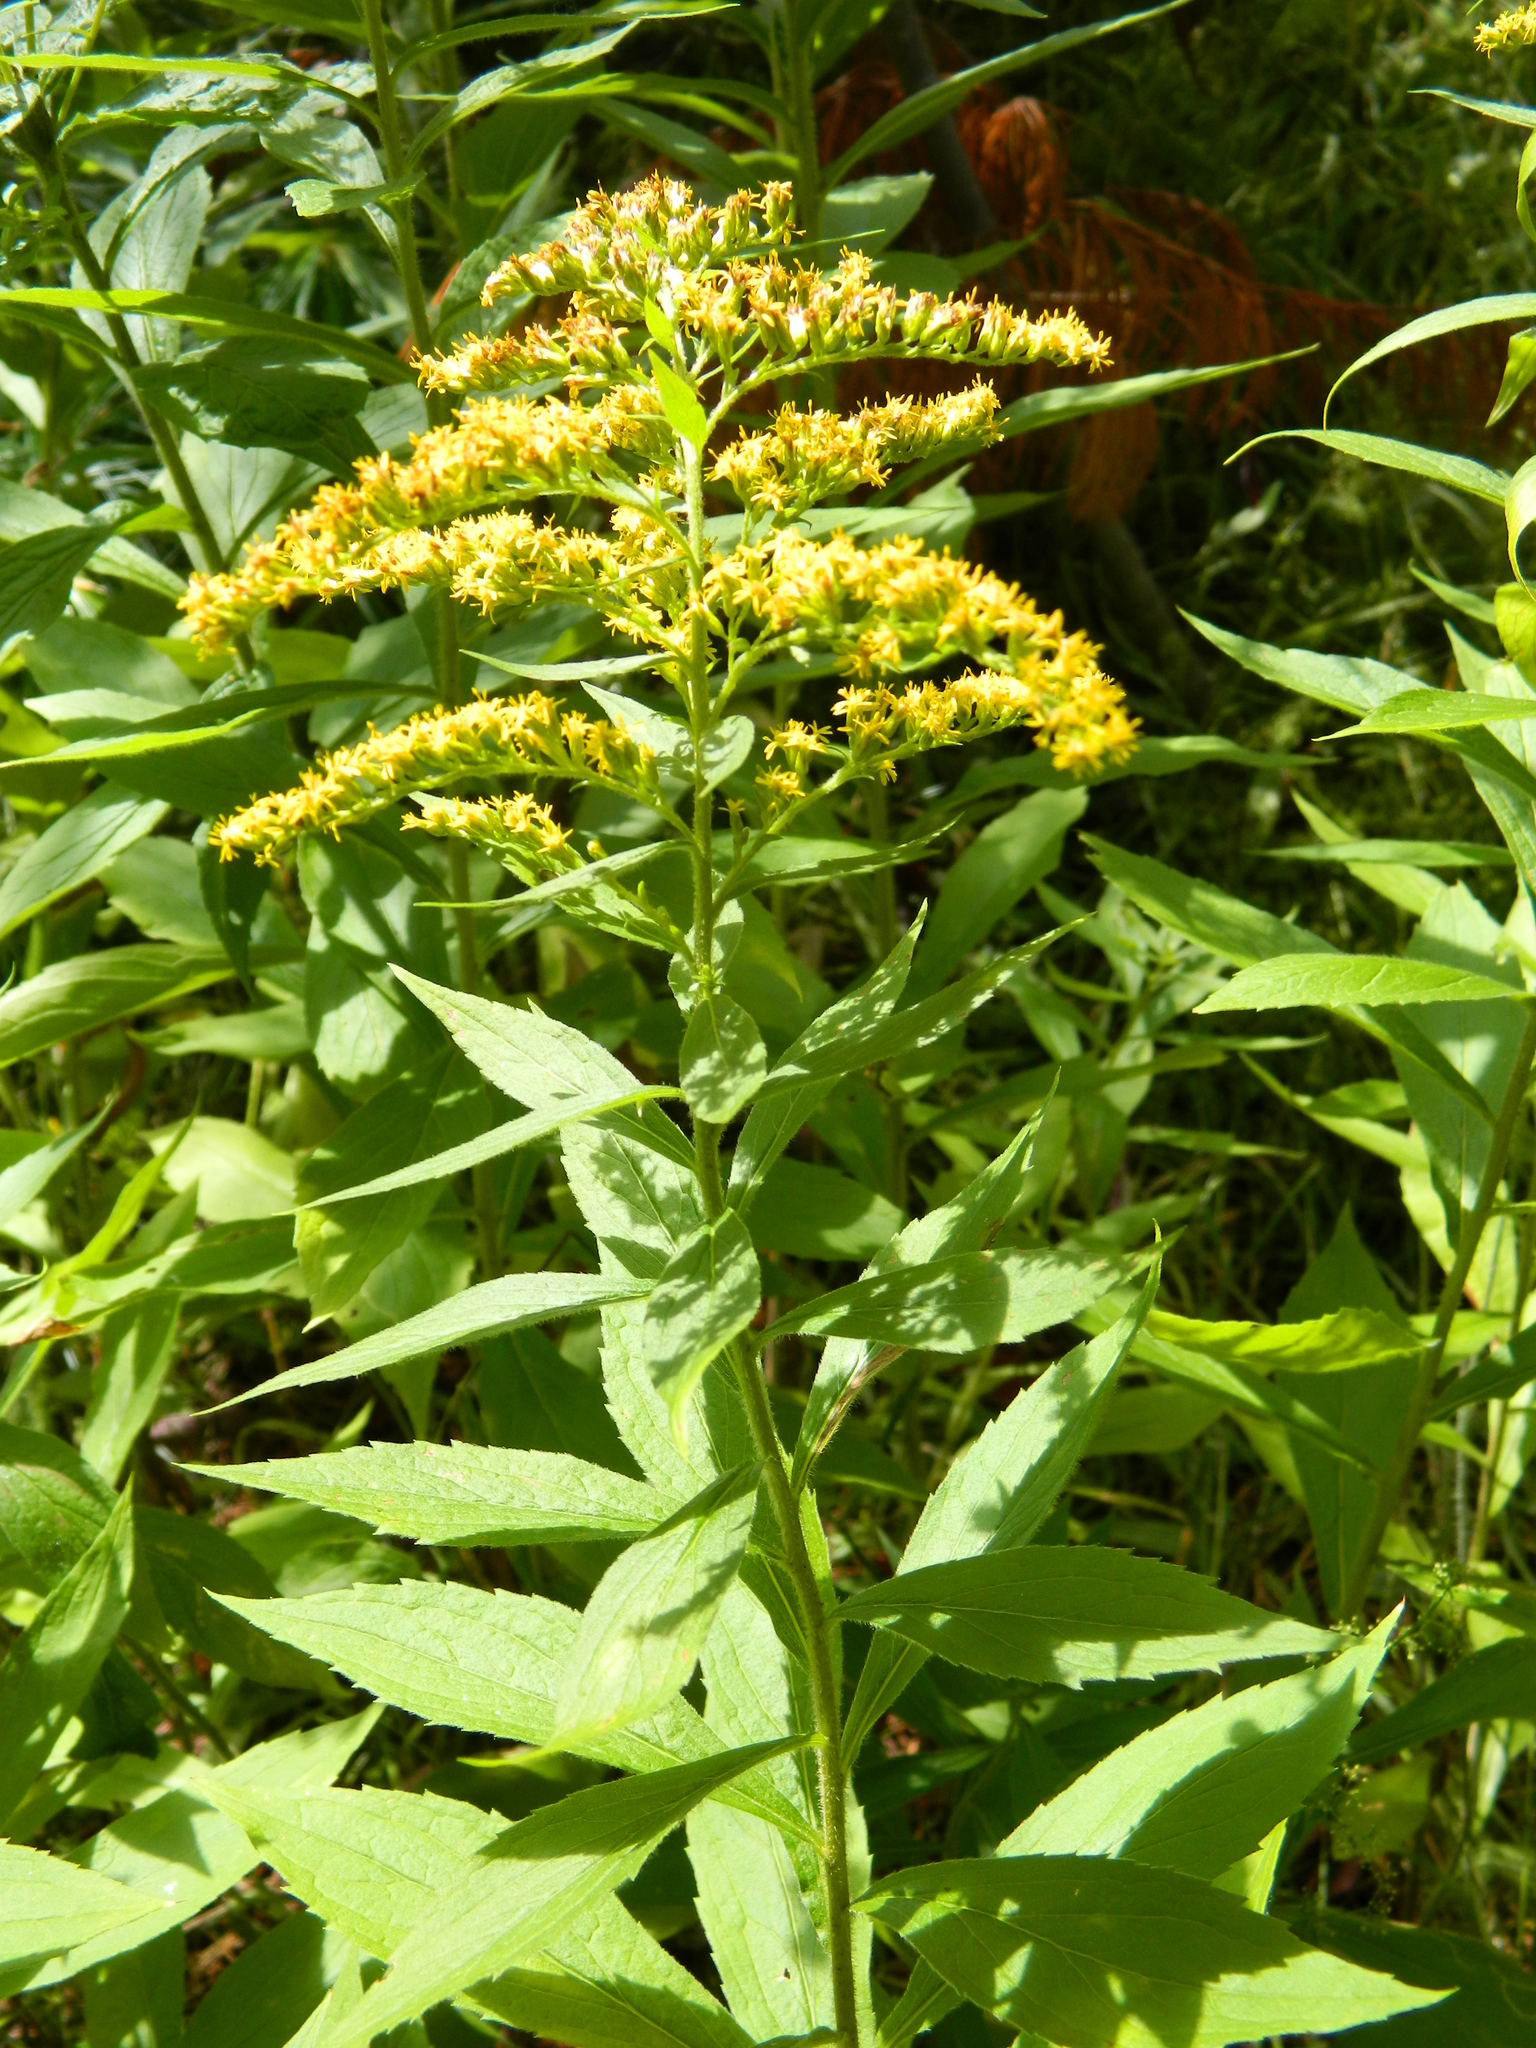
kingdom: Plantae
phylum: Tracheophyta
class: Magnoliopsida
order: Asterales
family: Asteraceae
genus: Solidago
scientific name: Solidago canadensis
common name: Canada goldenrod
